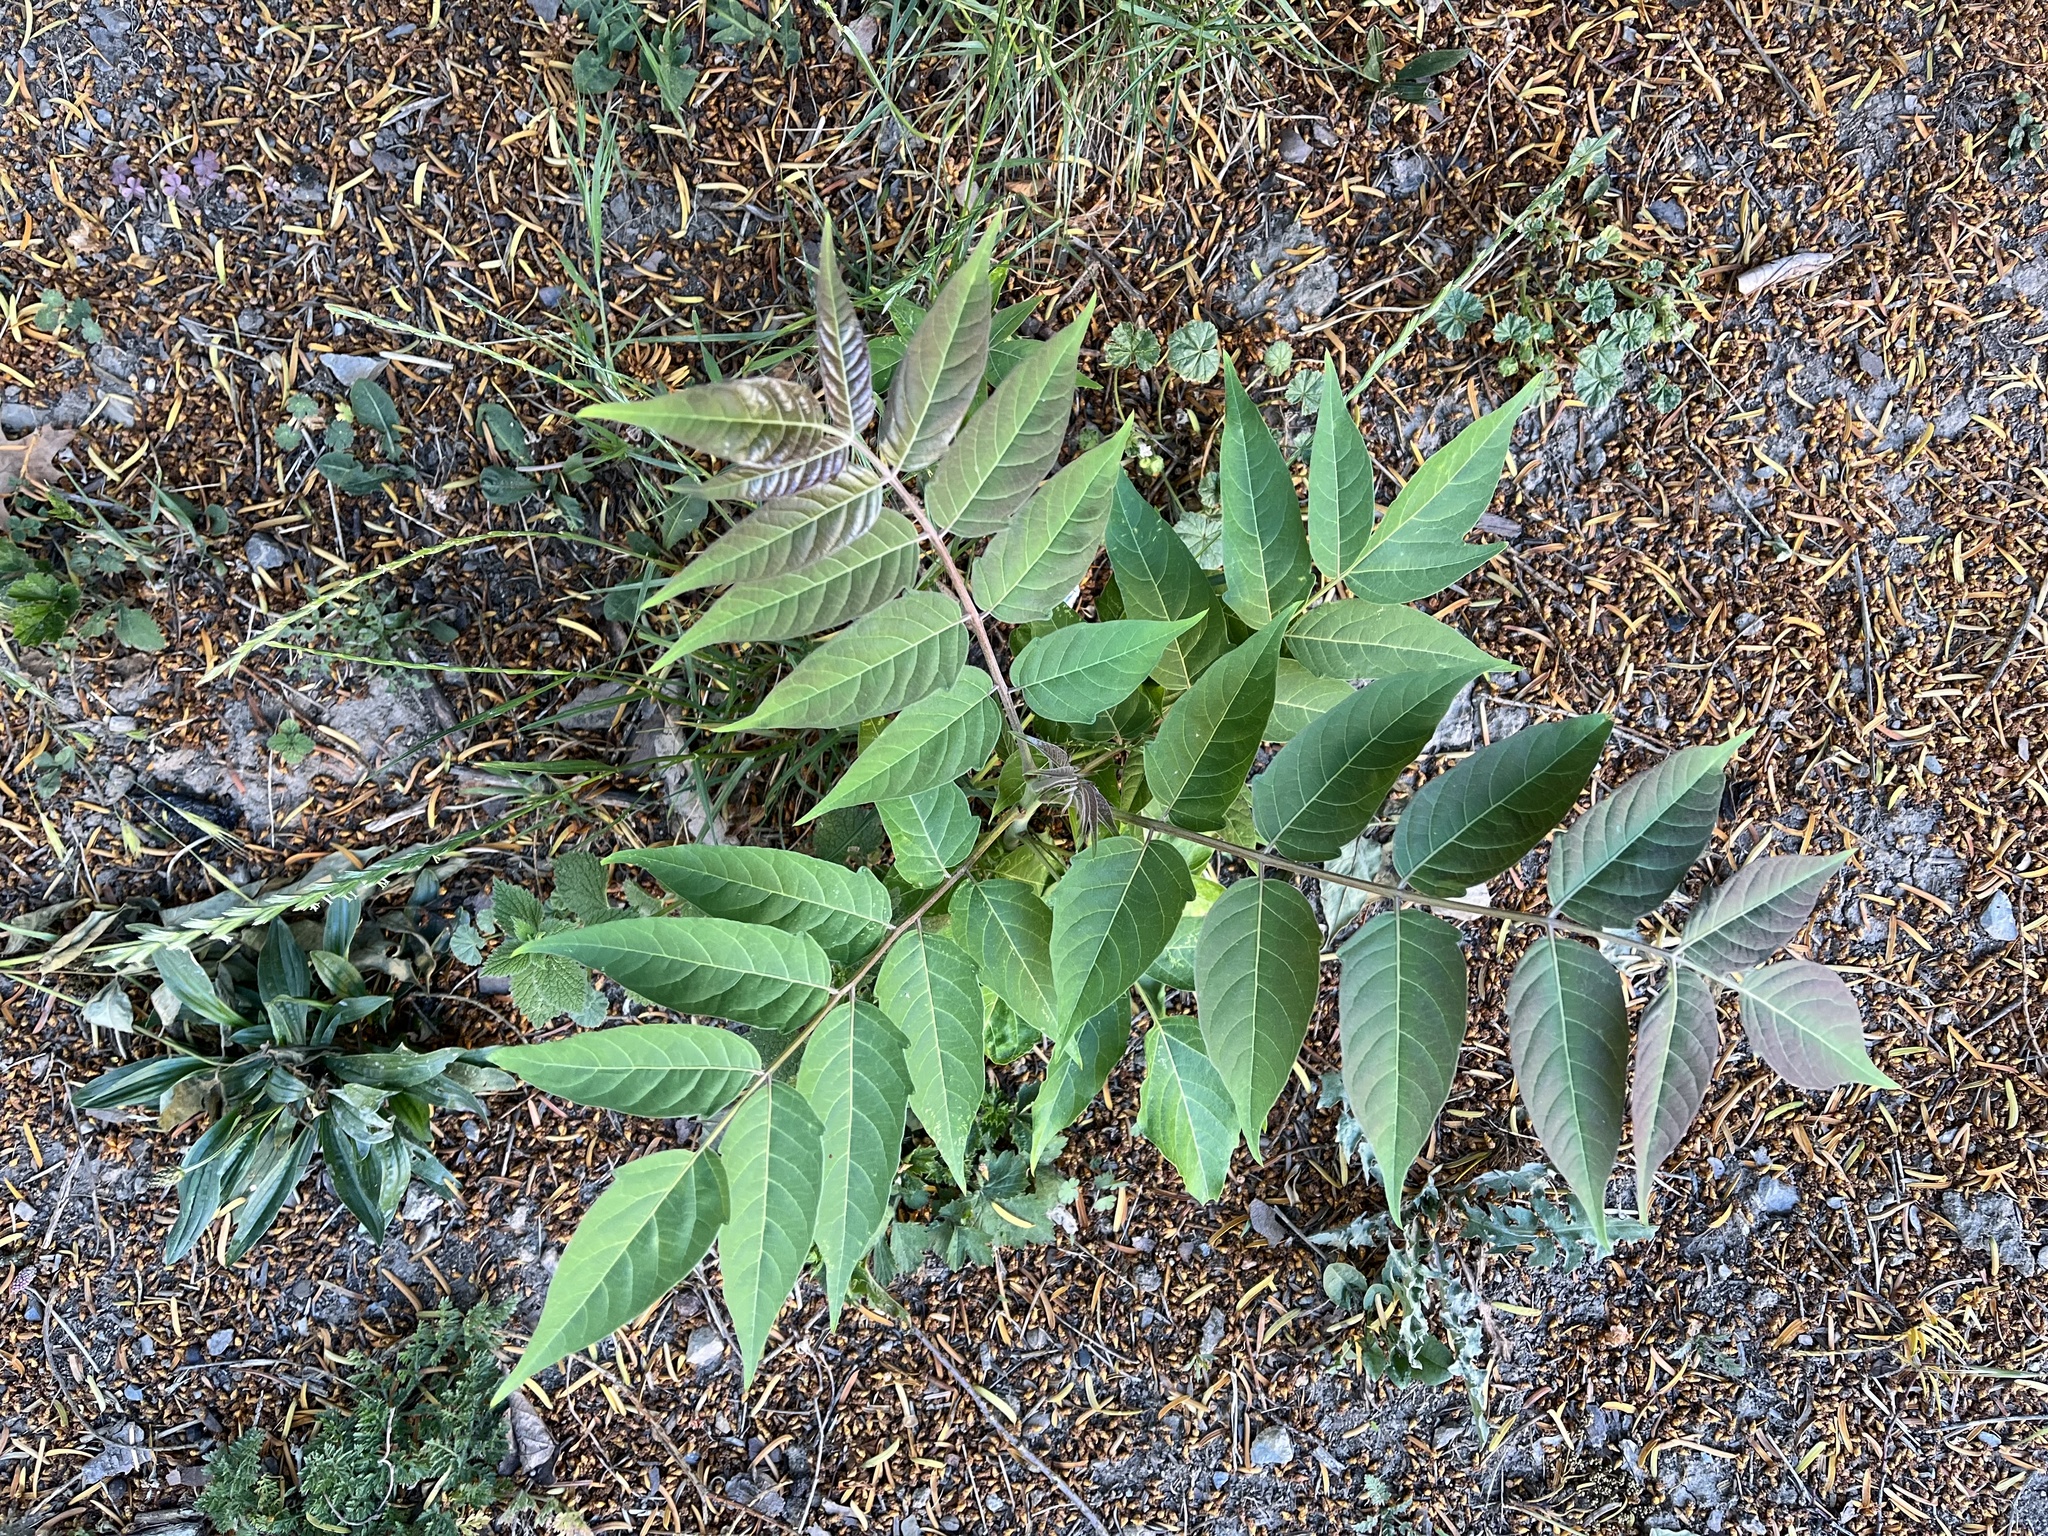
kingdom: Plantae
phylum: Tracheophyta
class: Magnoliopsida
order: Sapindales
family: Simaroubaceae
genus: Ailanthus
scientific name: Ailanthus altissima
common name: Tree-of-heaven
